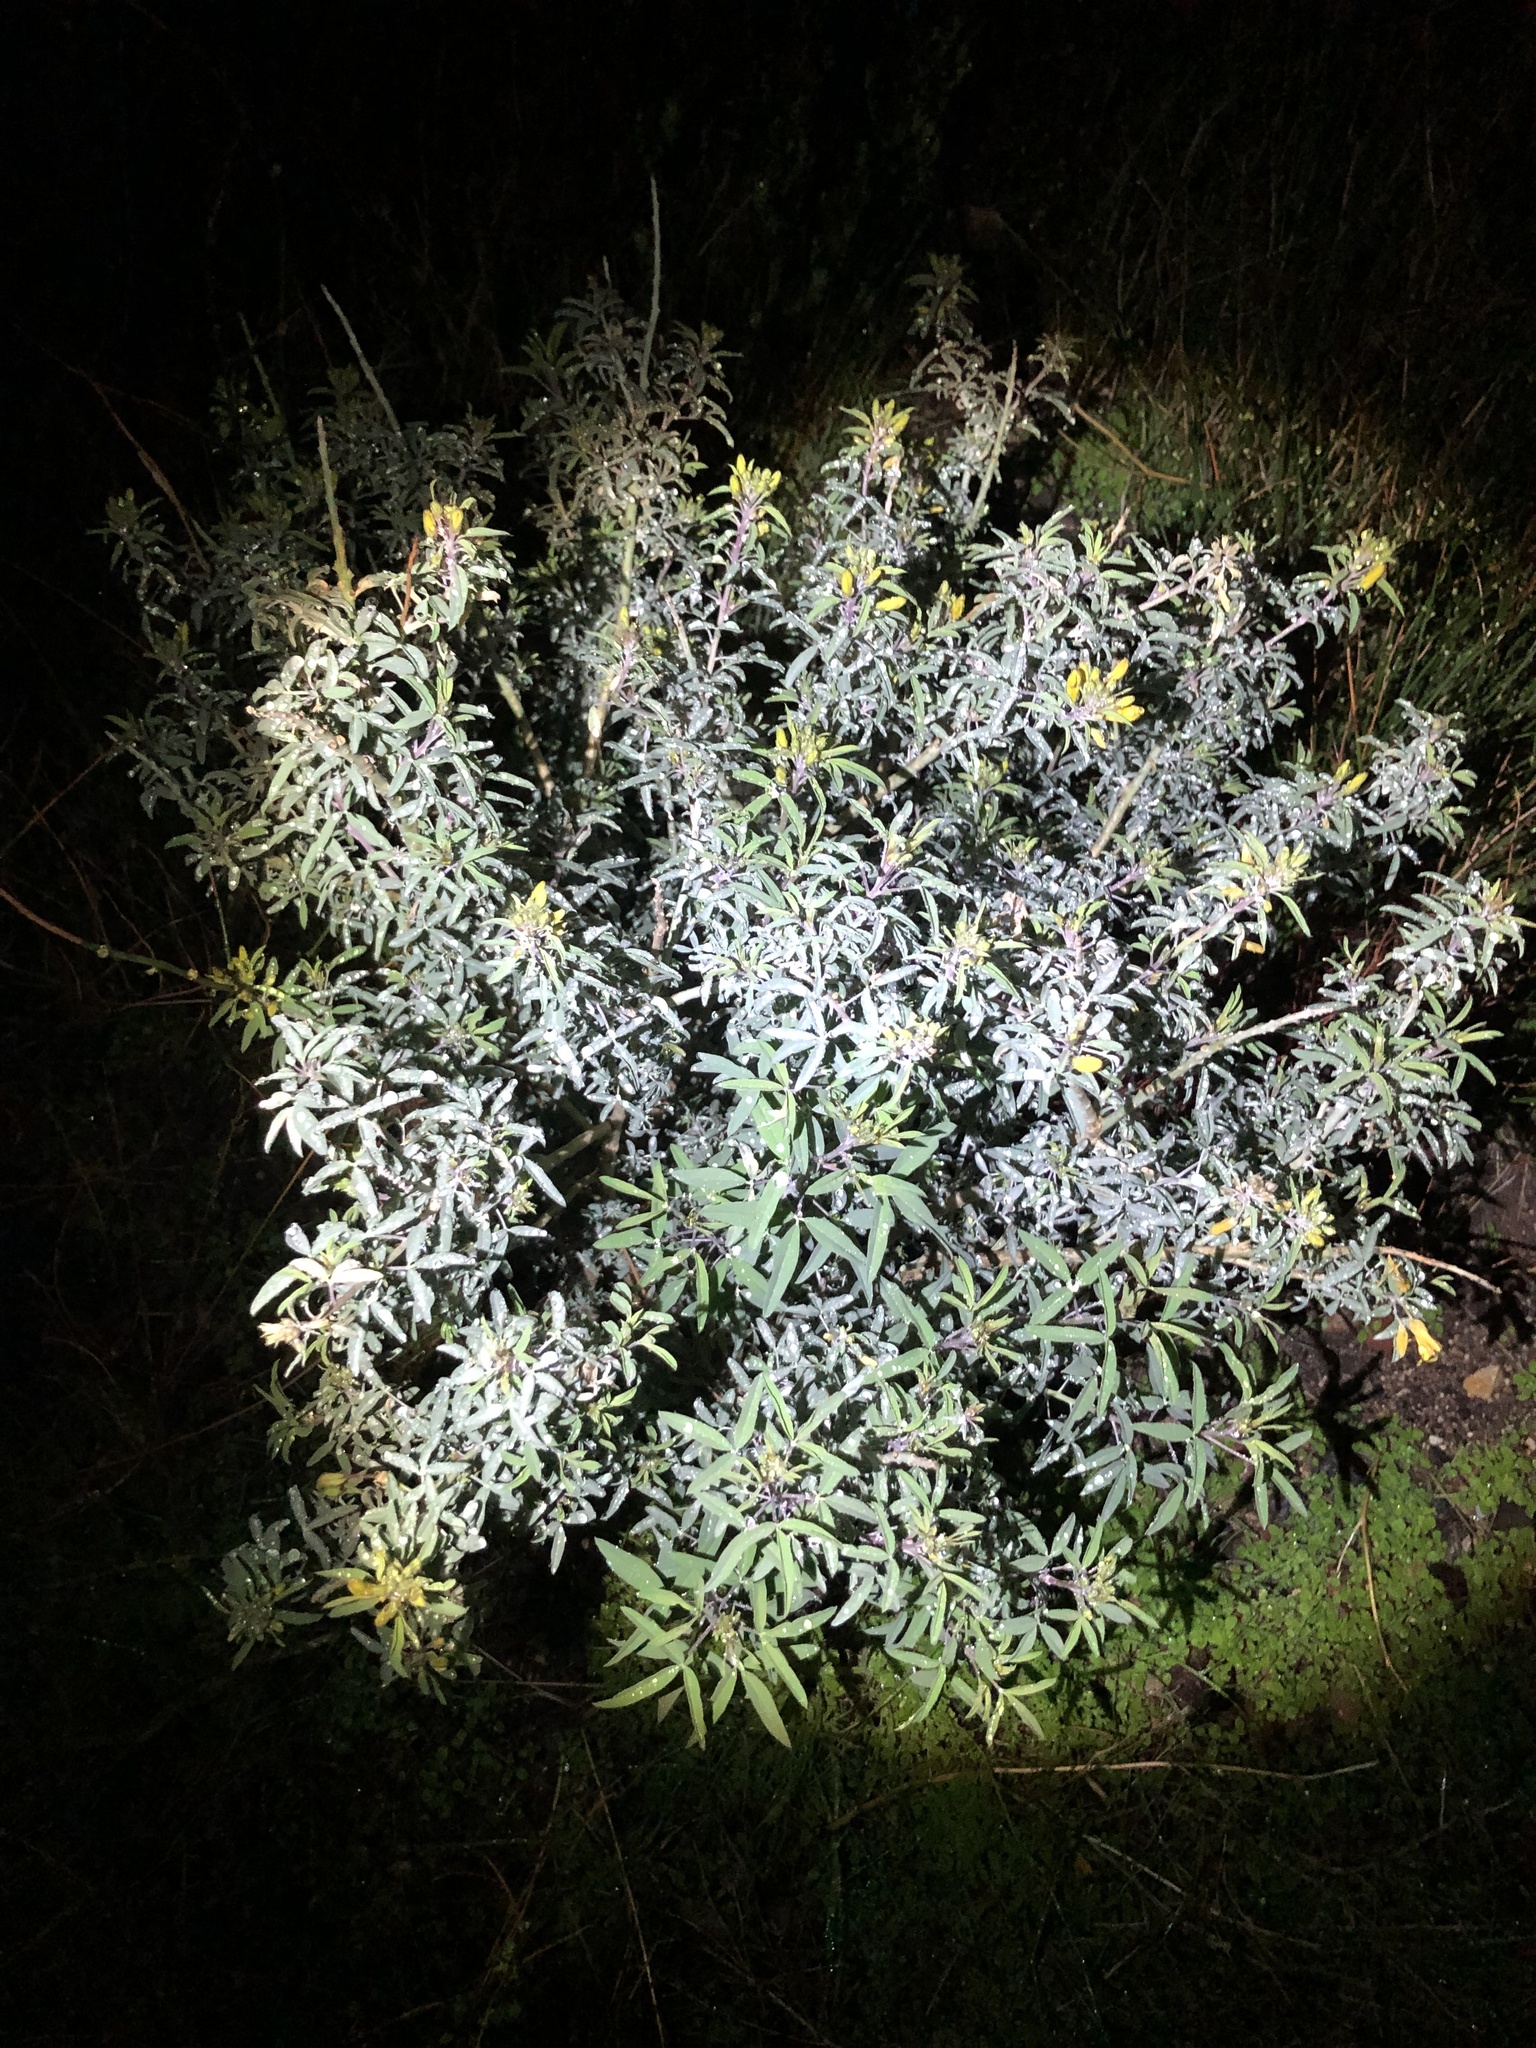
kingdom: Plantae
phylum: Tracheophyta
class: Magnoliopsida
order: Brassicales
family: Cleomaceae
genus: Cleomella
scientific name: Cleomella arborea
